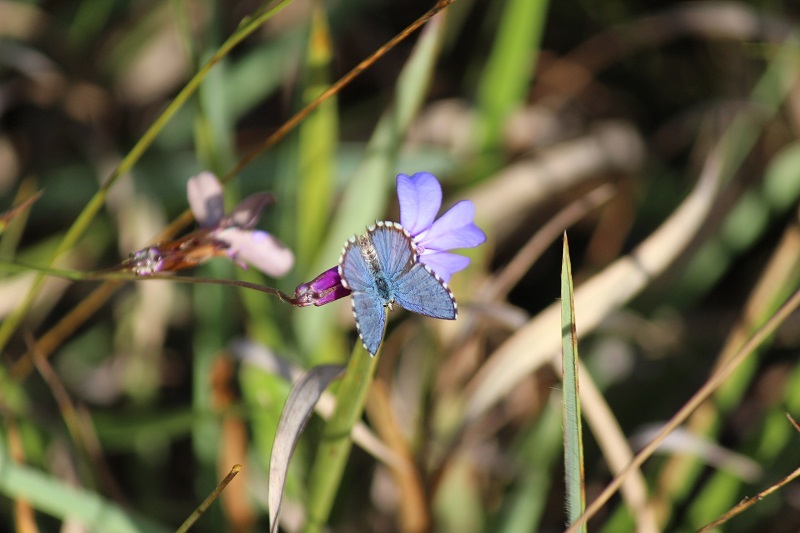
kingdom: Animalia
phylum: Arthropoda
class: Insecta
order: Lepidoptera
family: Lycaenidae
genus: Tarucus
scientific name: Tarucus thespis
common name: Vivid dotted blue
